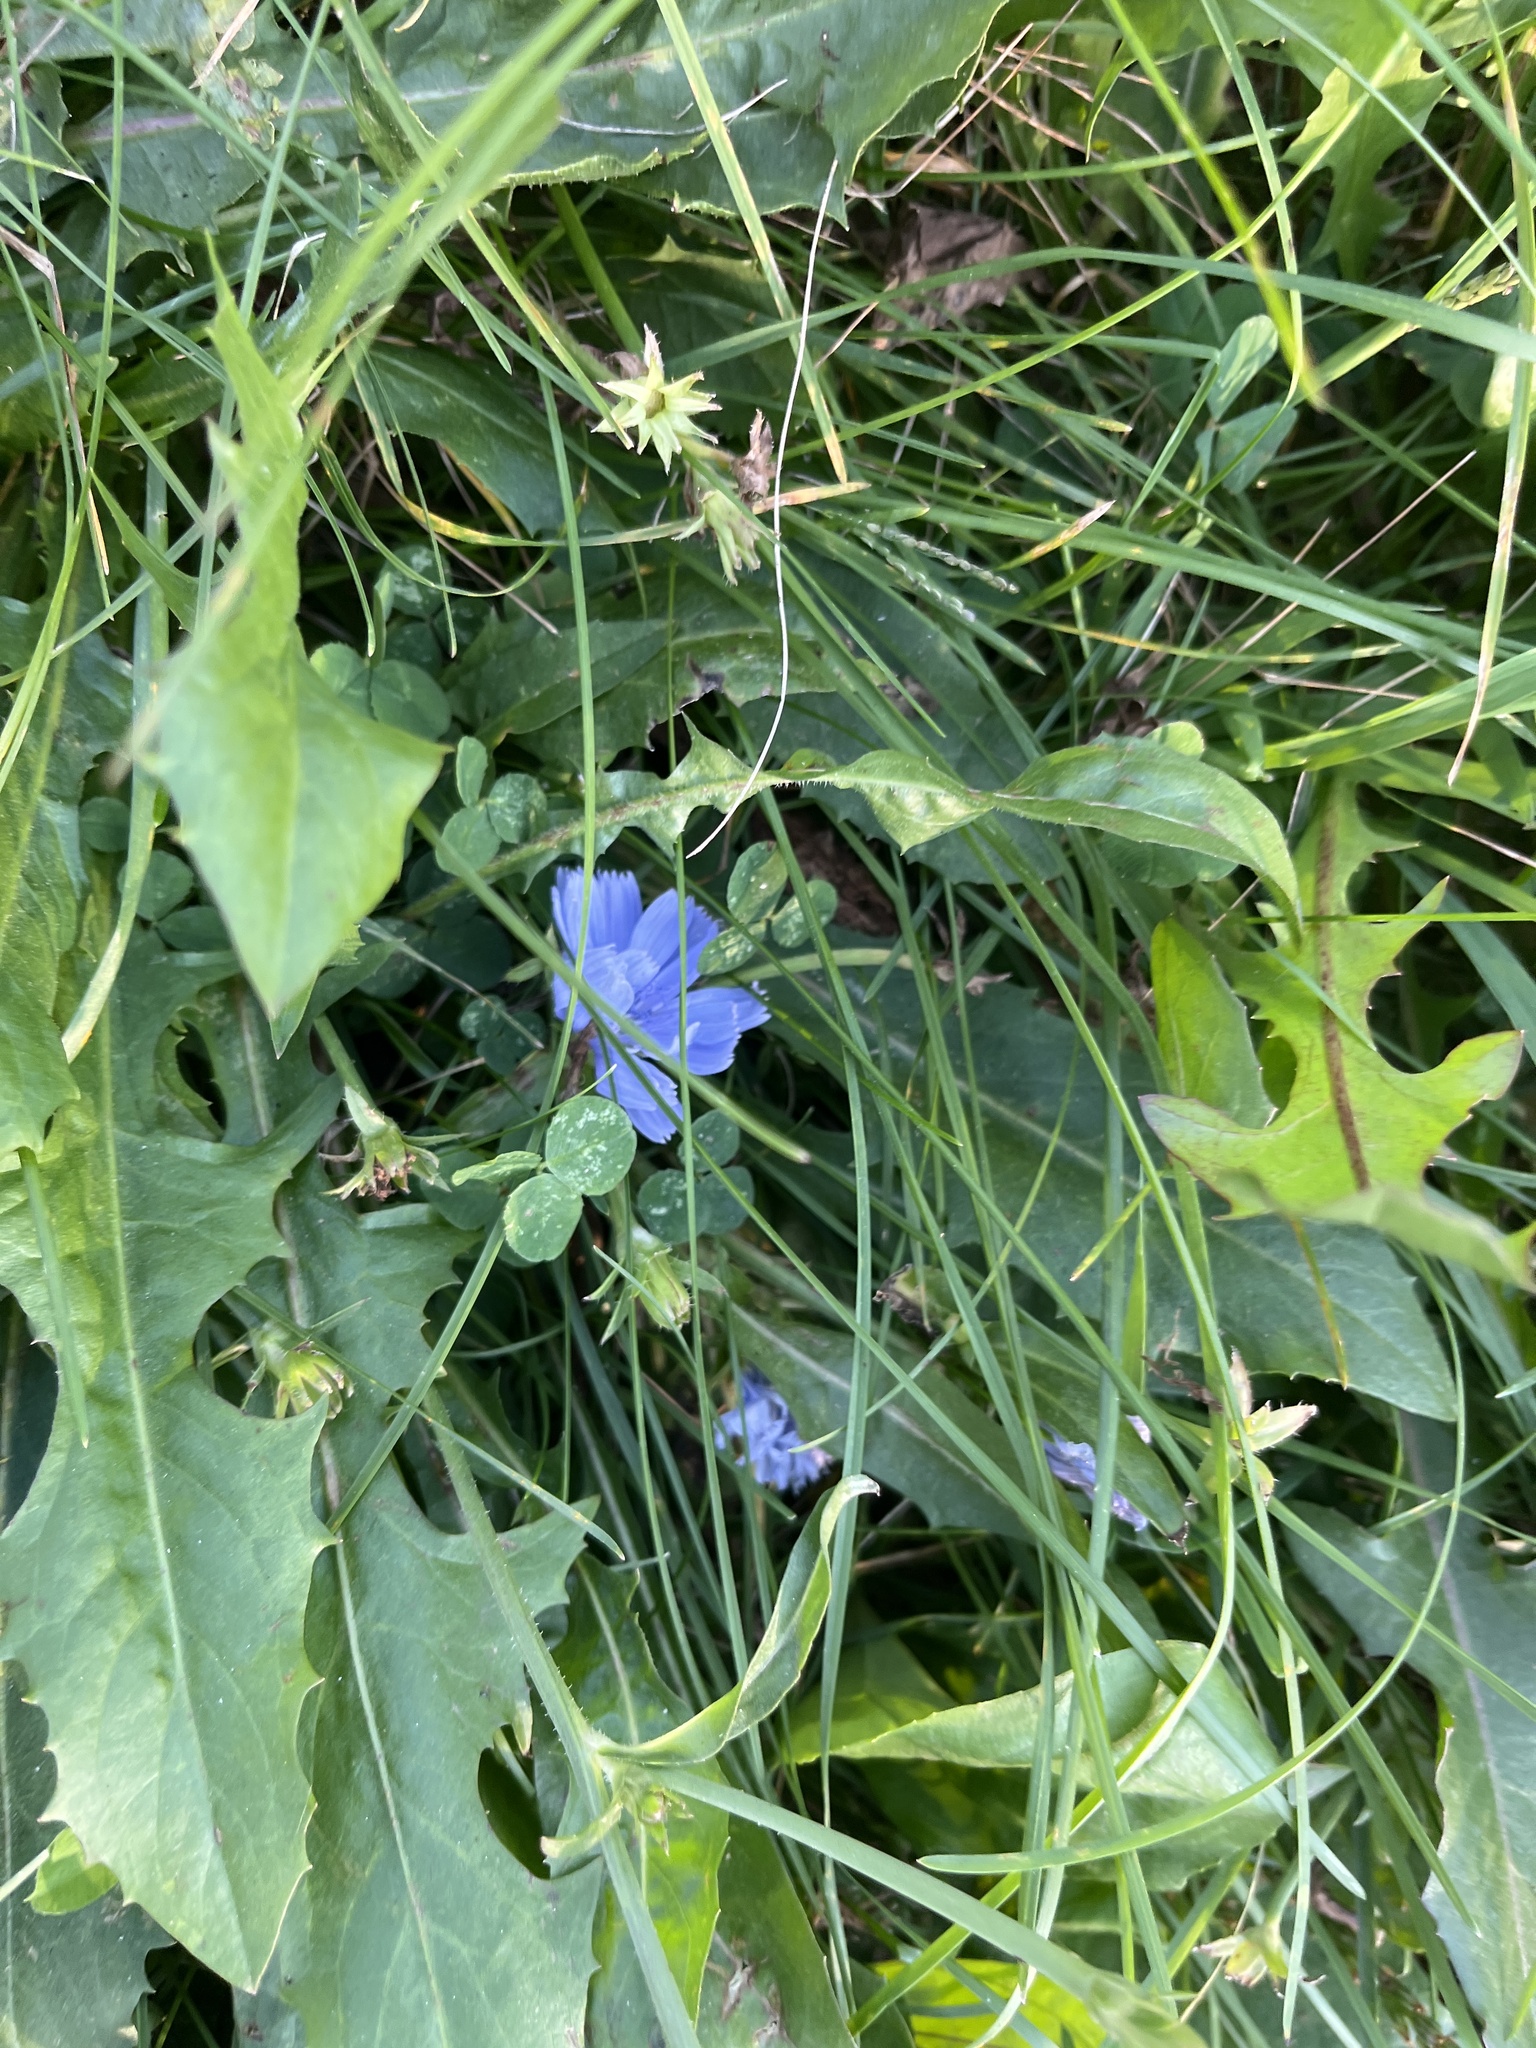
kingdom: Plantae
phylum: Tracheophyta
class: Magnoliopsida
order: Asterales
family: Asteraceae
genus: Cichorium
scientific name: Cichorium intybus
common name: Chicory
